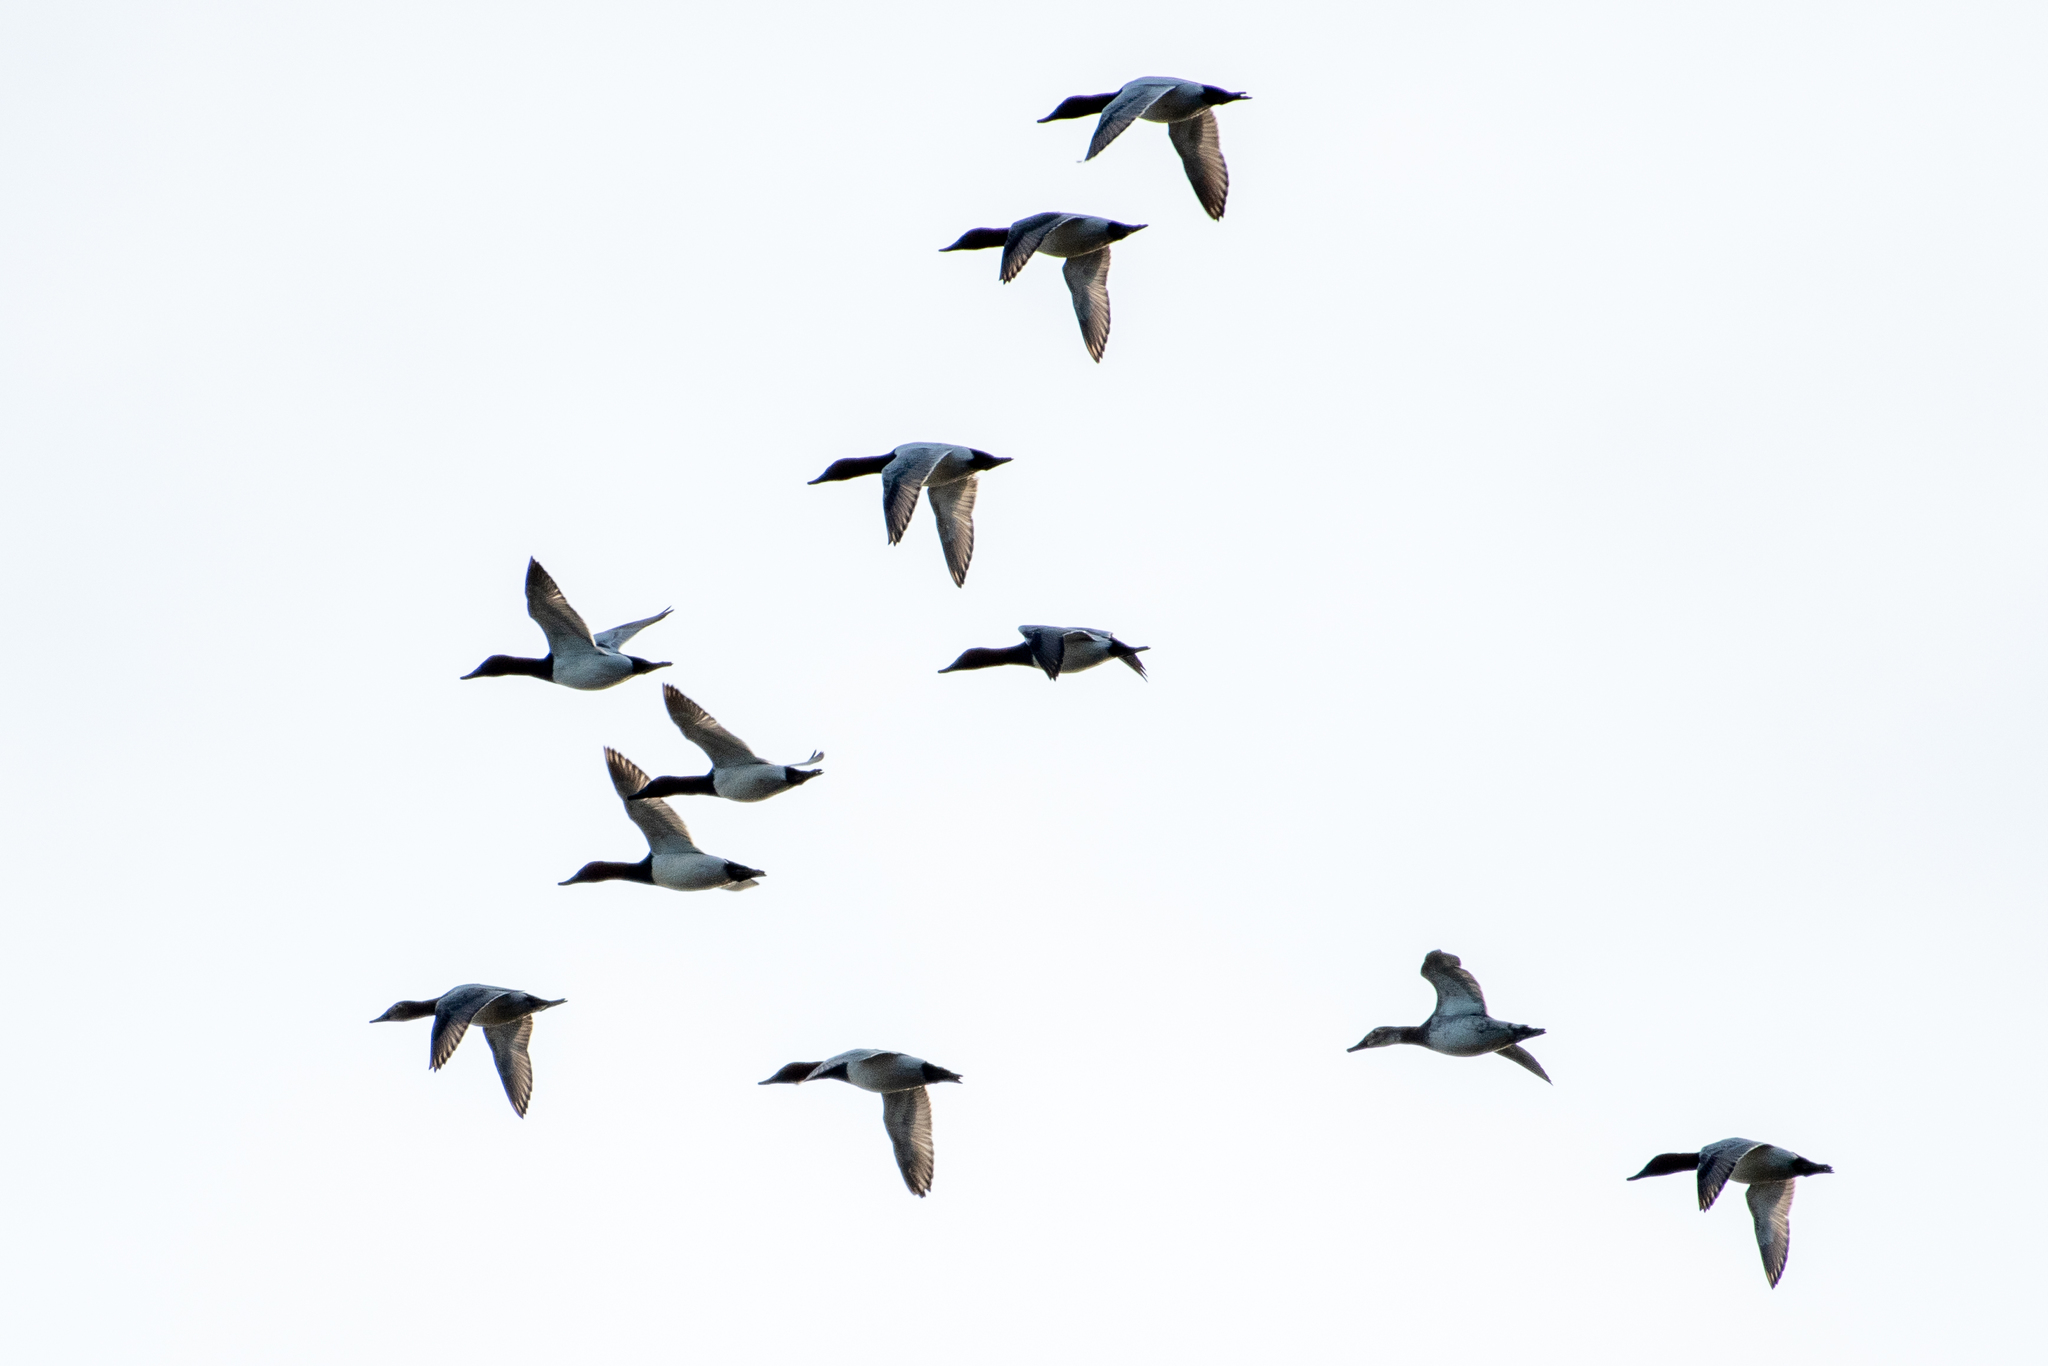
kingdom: Animalia
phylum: Chordata
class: Aves
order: Anseriformes
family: Anatidae
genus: Aythya
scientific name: Aythya valisineria
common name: Canvasback
